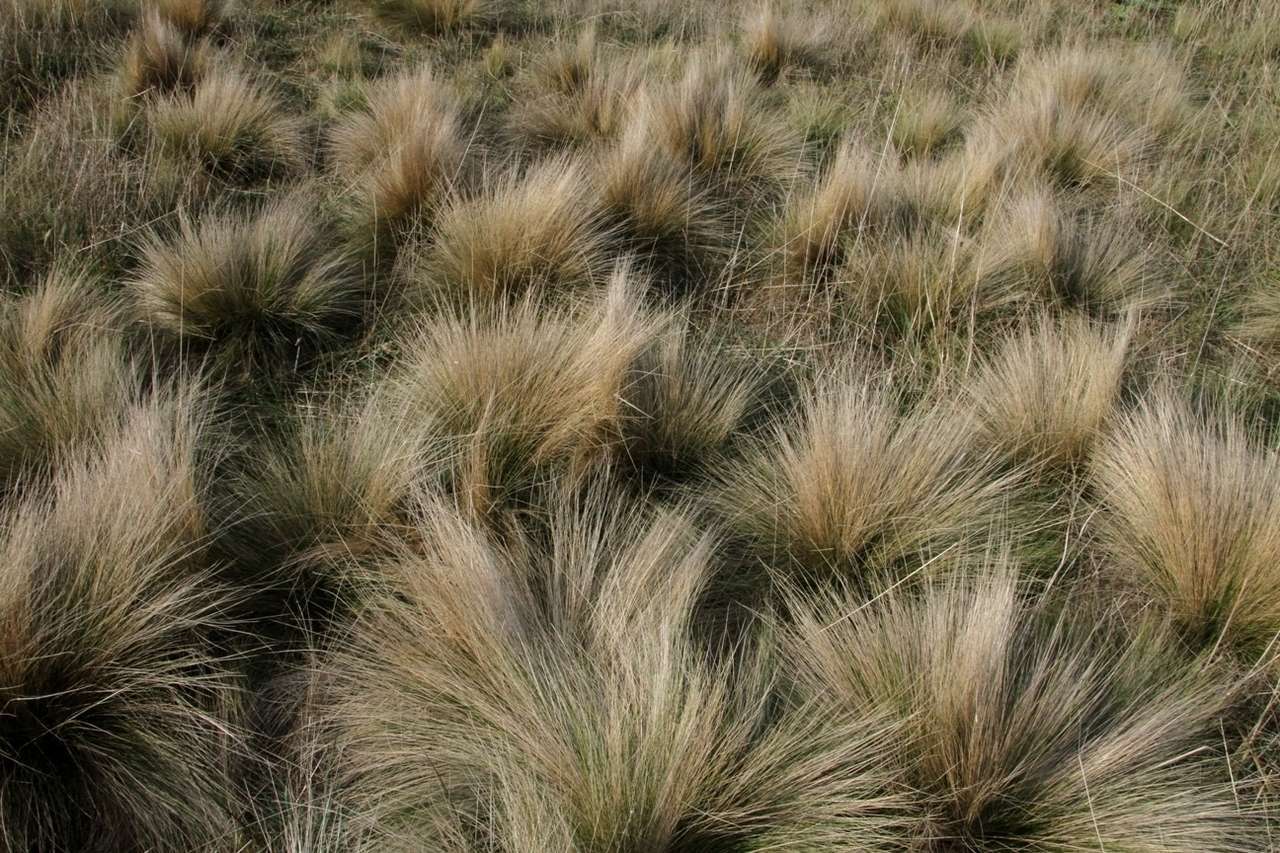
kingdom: Plantae
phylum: Tracheophyta
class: Liliopsida
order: Poales
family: Poaceae
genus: Nassella
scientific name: Nassella trichotoma
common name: Serrated tussock grass
